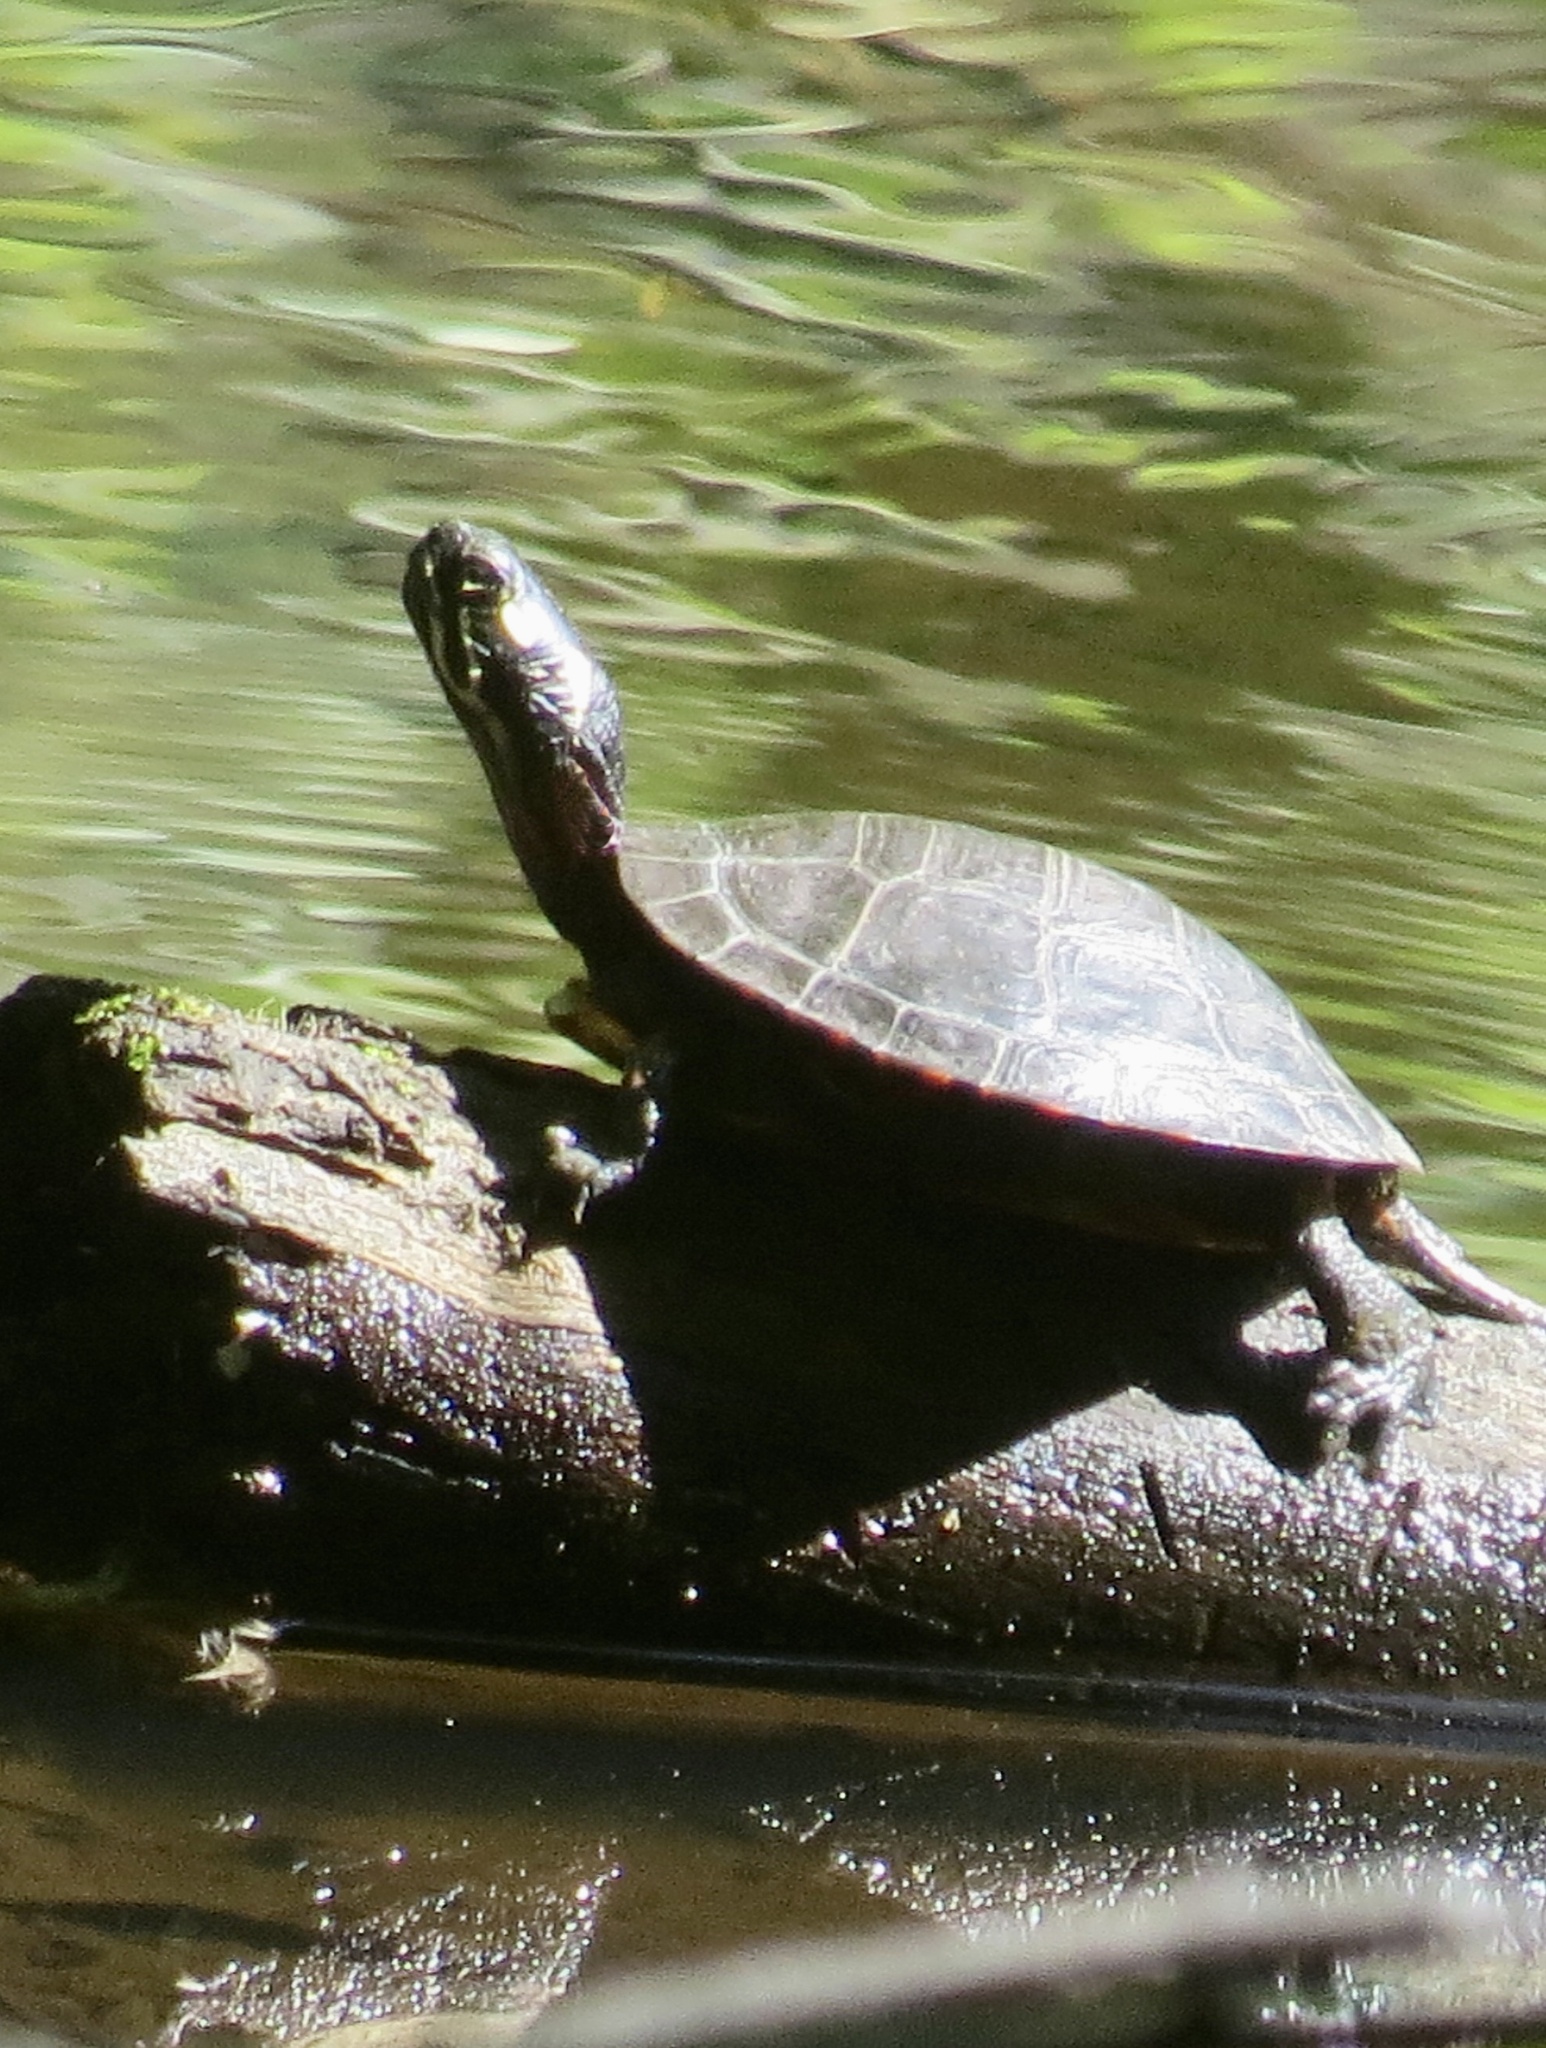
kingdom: Animalia
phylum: Chordata
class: Testudines
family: Emydidae
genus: Chrysemys
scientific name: Chrysemys picta
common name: Painted turtle
